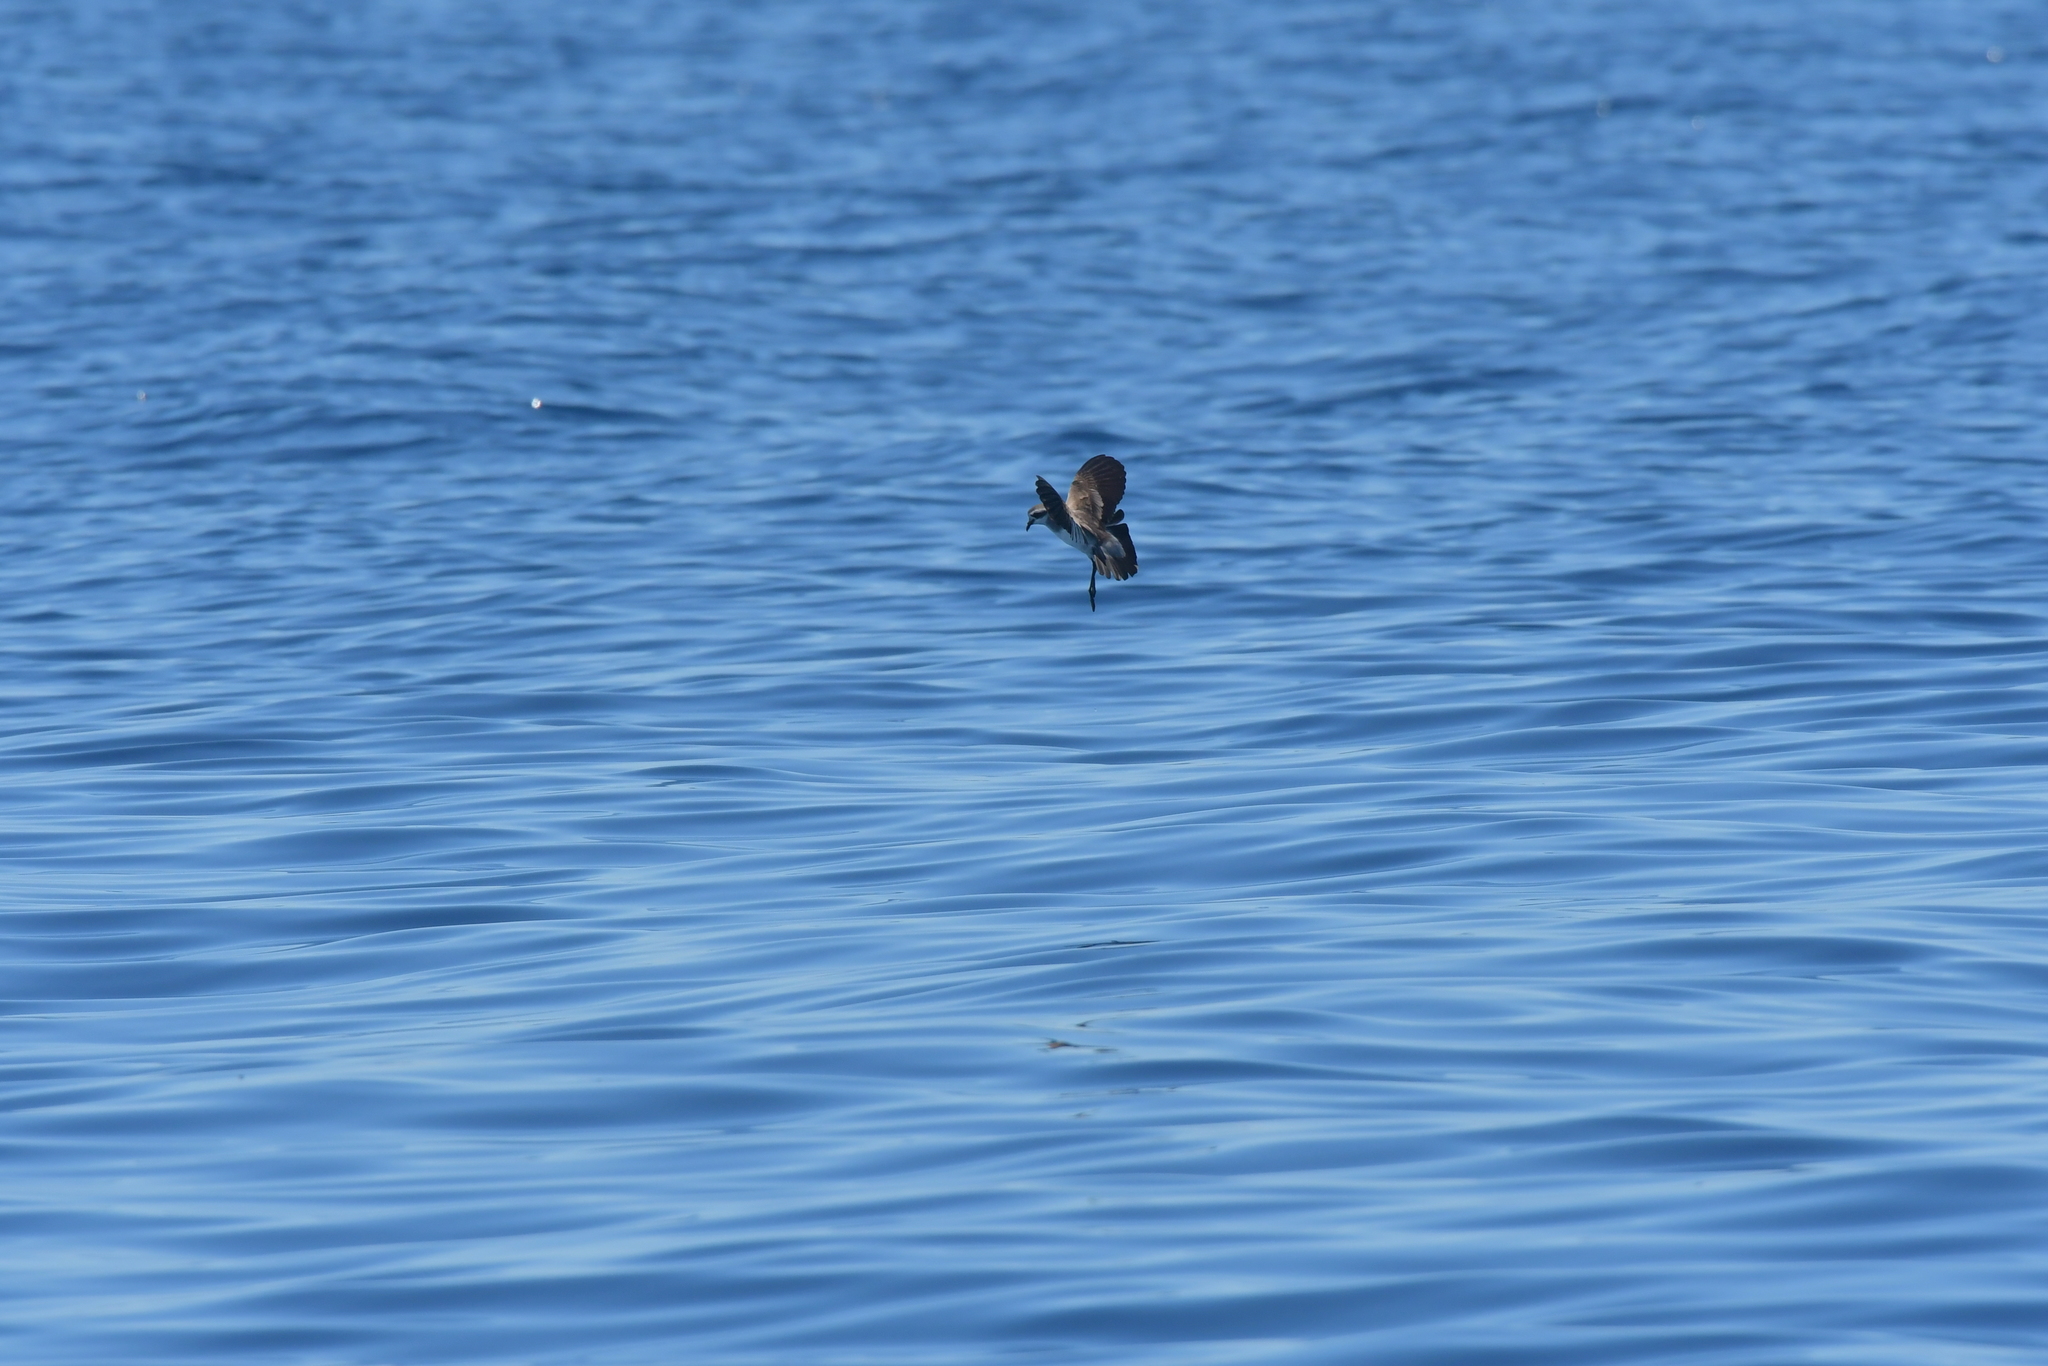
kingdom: Animalia
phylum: Chordata
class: Aves
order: Procellariiformes
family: Hydrobatidae
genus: Pelagodroma
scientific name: Pelagodroma marina
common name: White-faced storm-petrel
